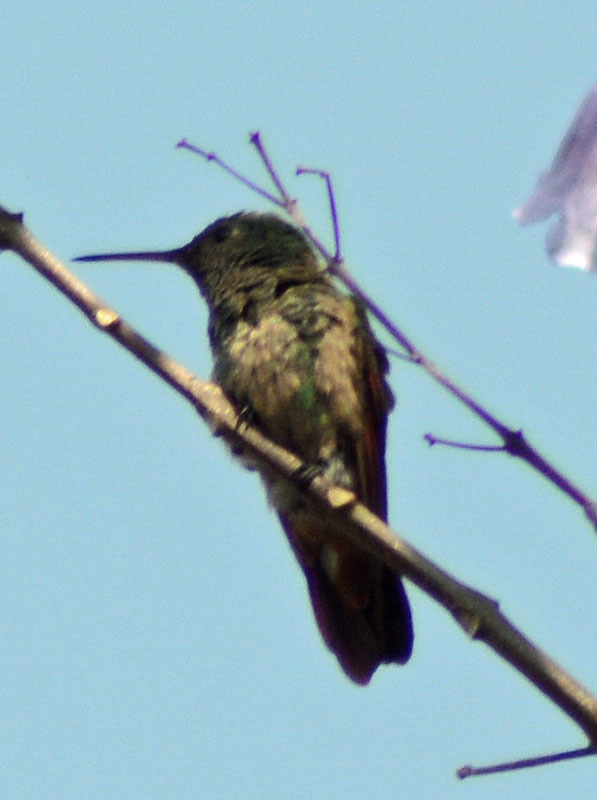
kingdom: Animalia
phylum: Chordata
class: Aves
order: Apodiformes
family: Trochilidae
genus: Saucerottia
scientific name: Saucerottia beryllina
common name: Berylline hummingbird
